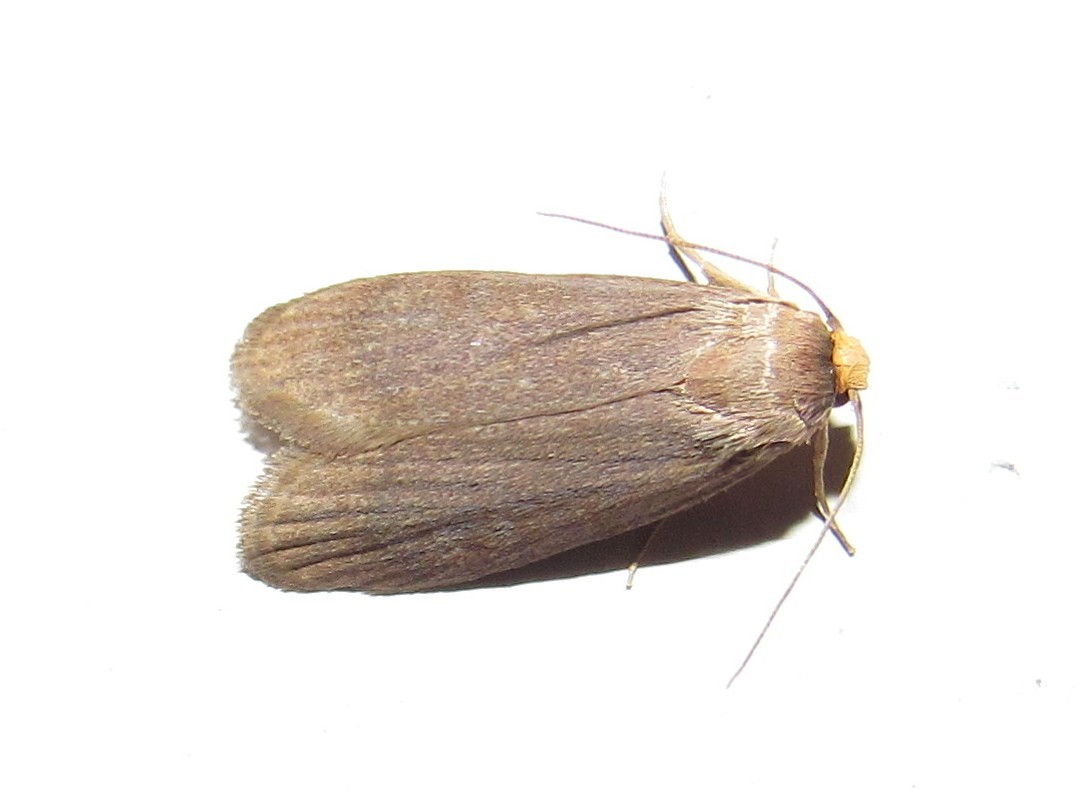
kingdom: Animalia
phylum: Arthropoda
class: Insecta
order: Lepidoptera
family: Pyralidae
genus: Achroia
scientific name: Achroia grisella
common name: Lesser wax moth
